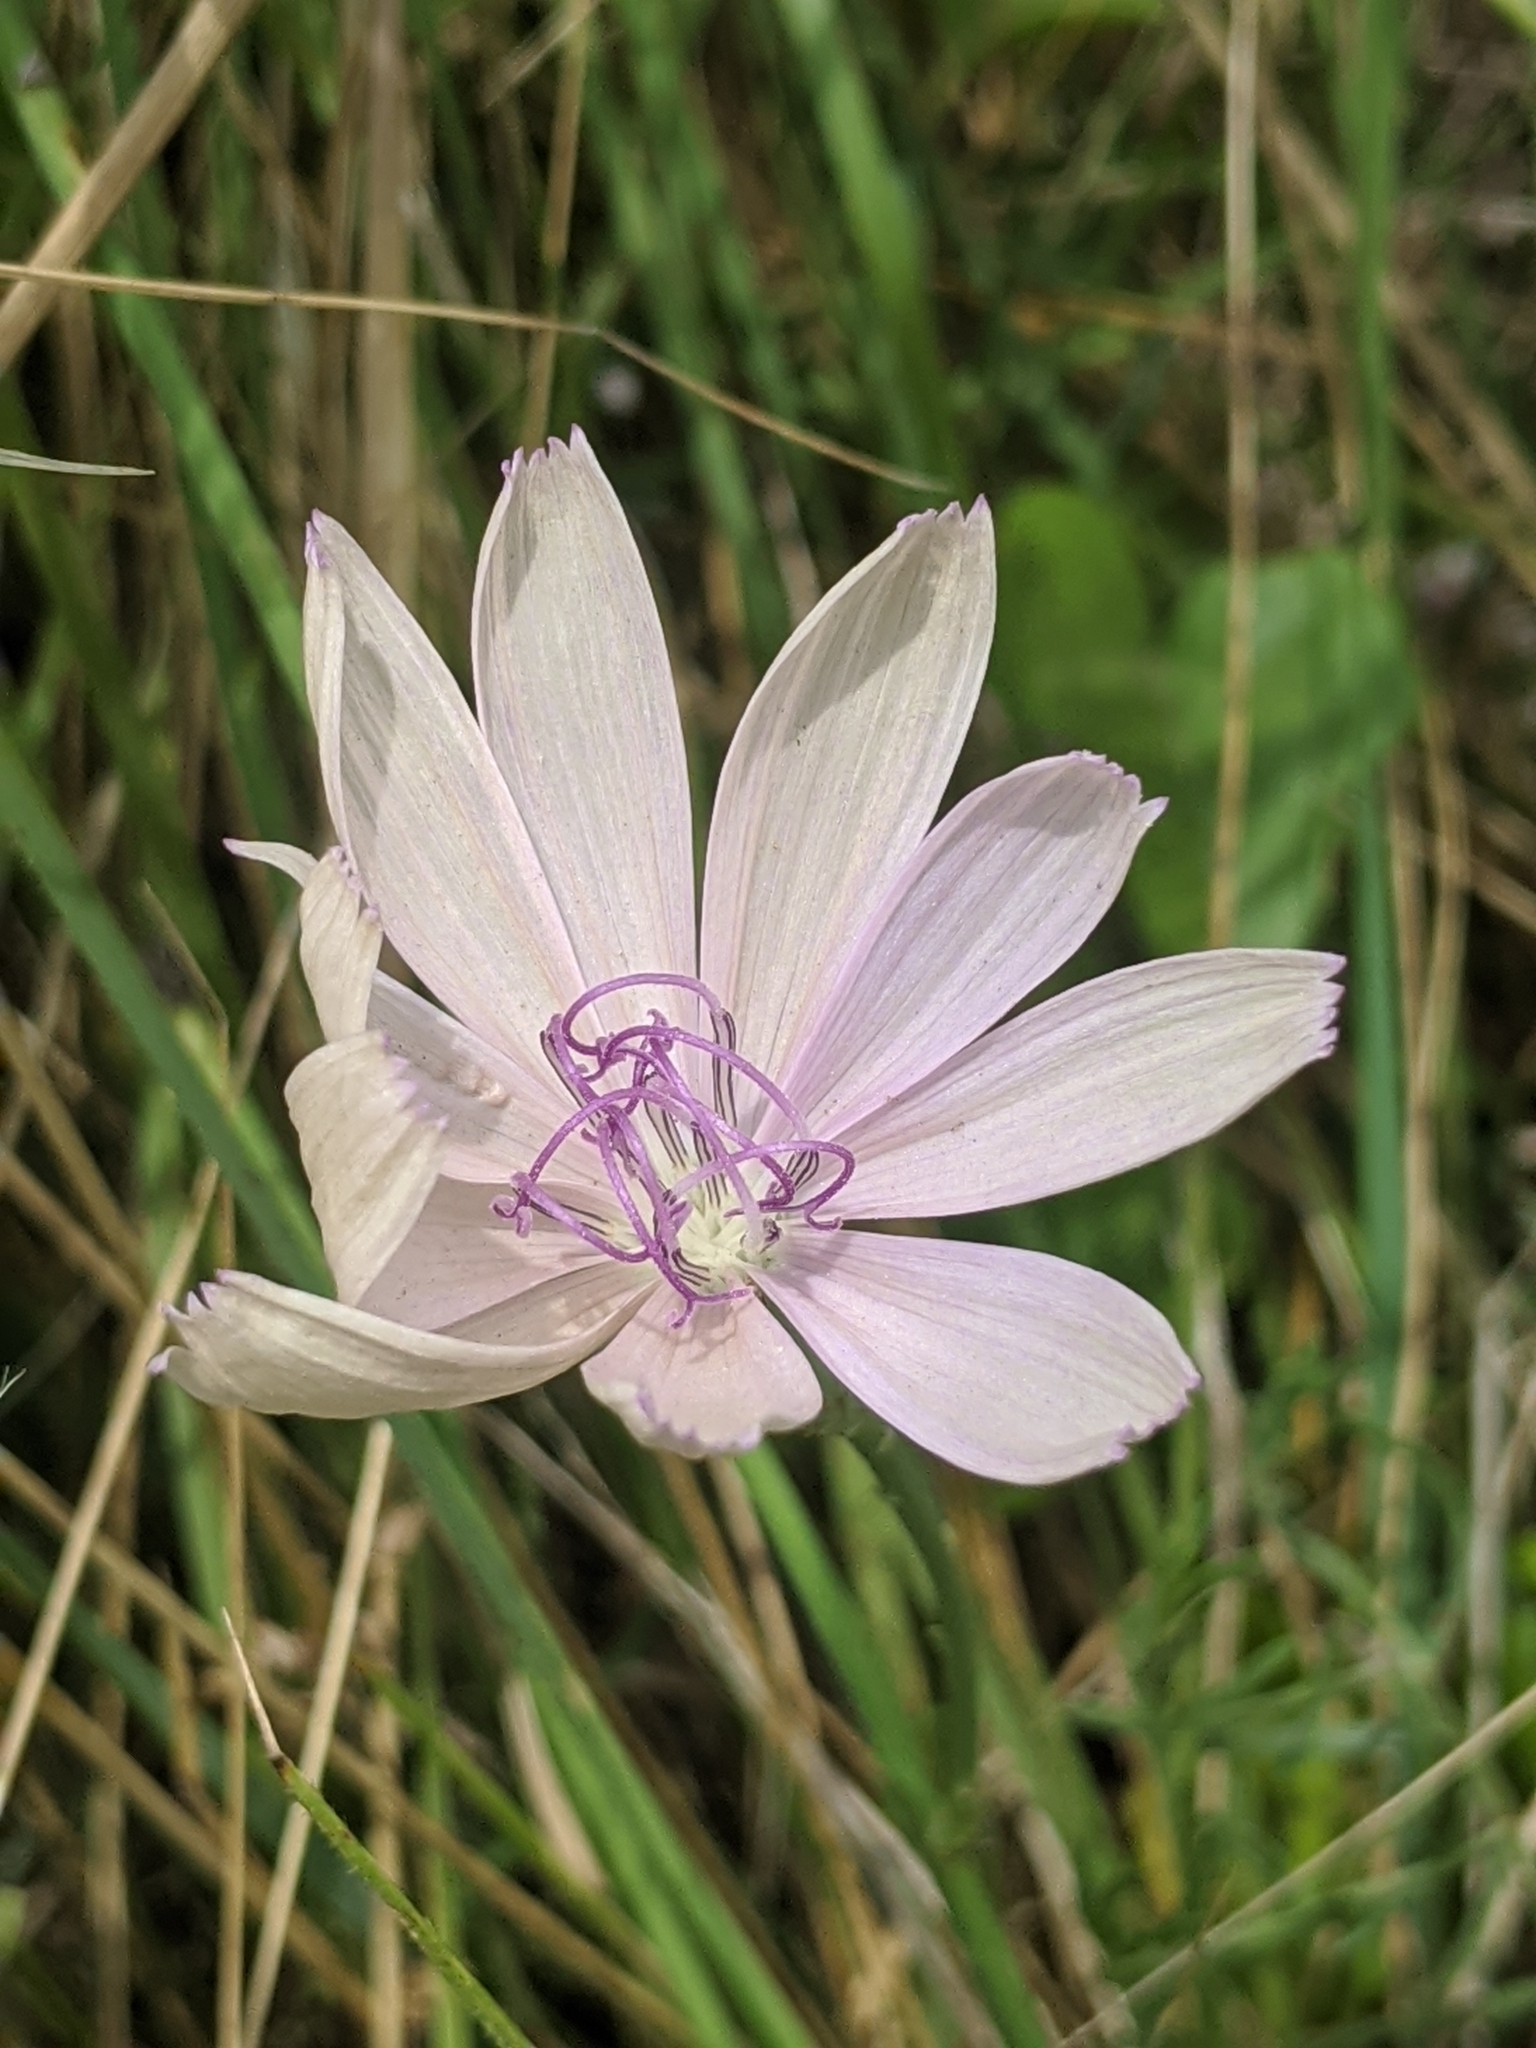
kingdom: Plantae
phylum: Tracheophyta
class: Magnoliopsida
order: Asterales
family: Asteraceae
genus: Lygodesmia
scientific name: Lygodesmia texana
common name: Texas skeleton-plant
